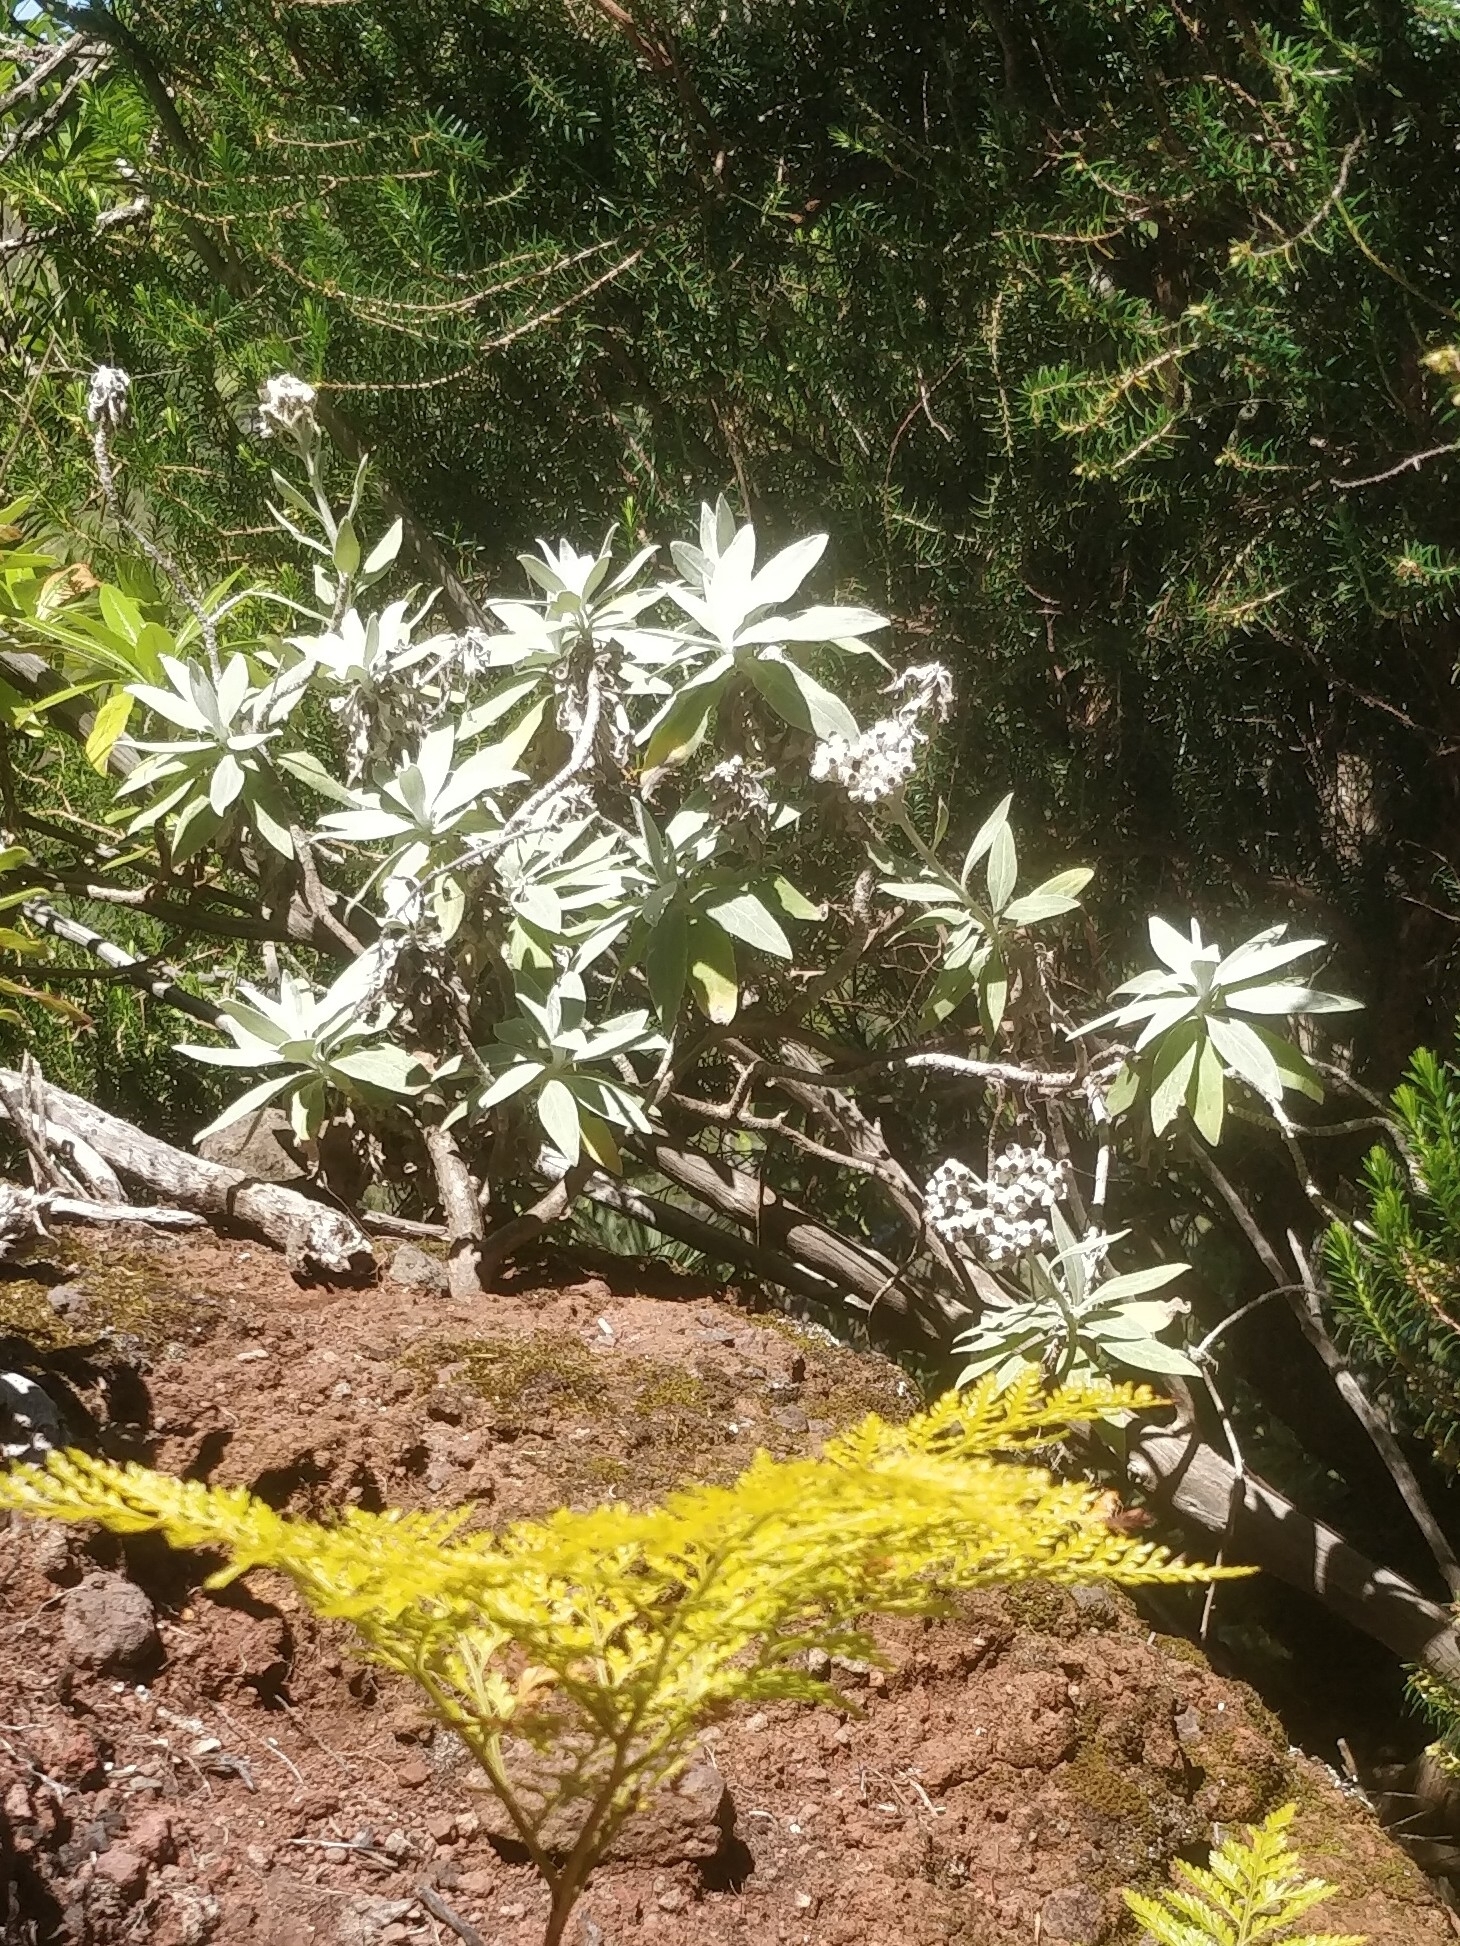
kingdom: Plantae
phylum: Tracheophyta
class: Magnoliopsida
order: Asterales
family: Asteraceae
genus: Helichrysum
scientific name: Helichrysum melaleucum
